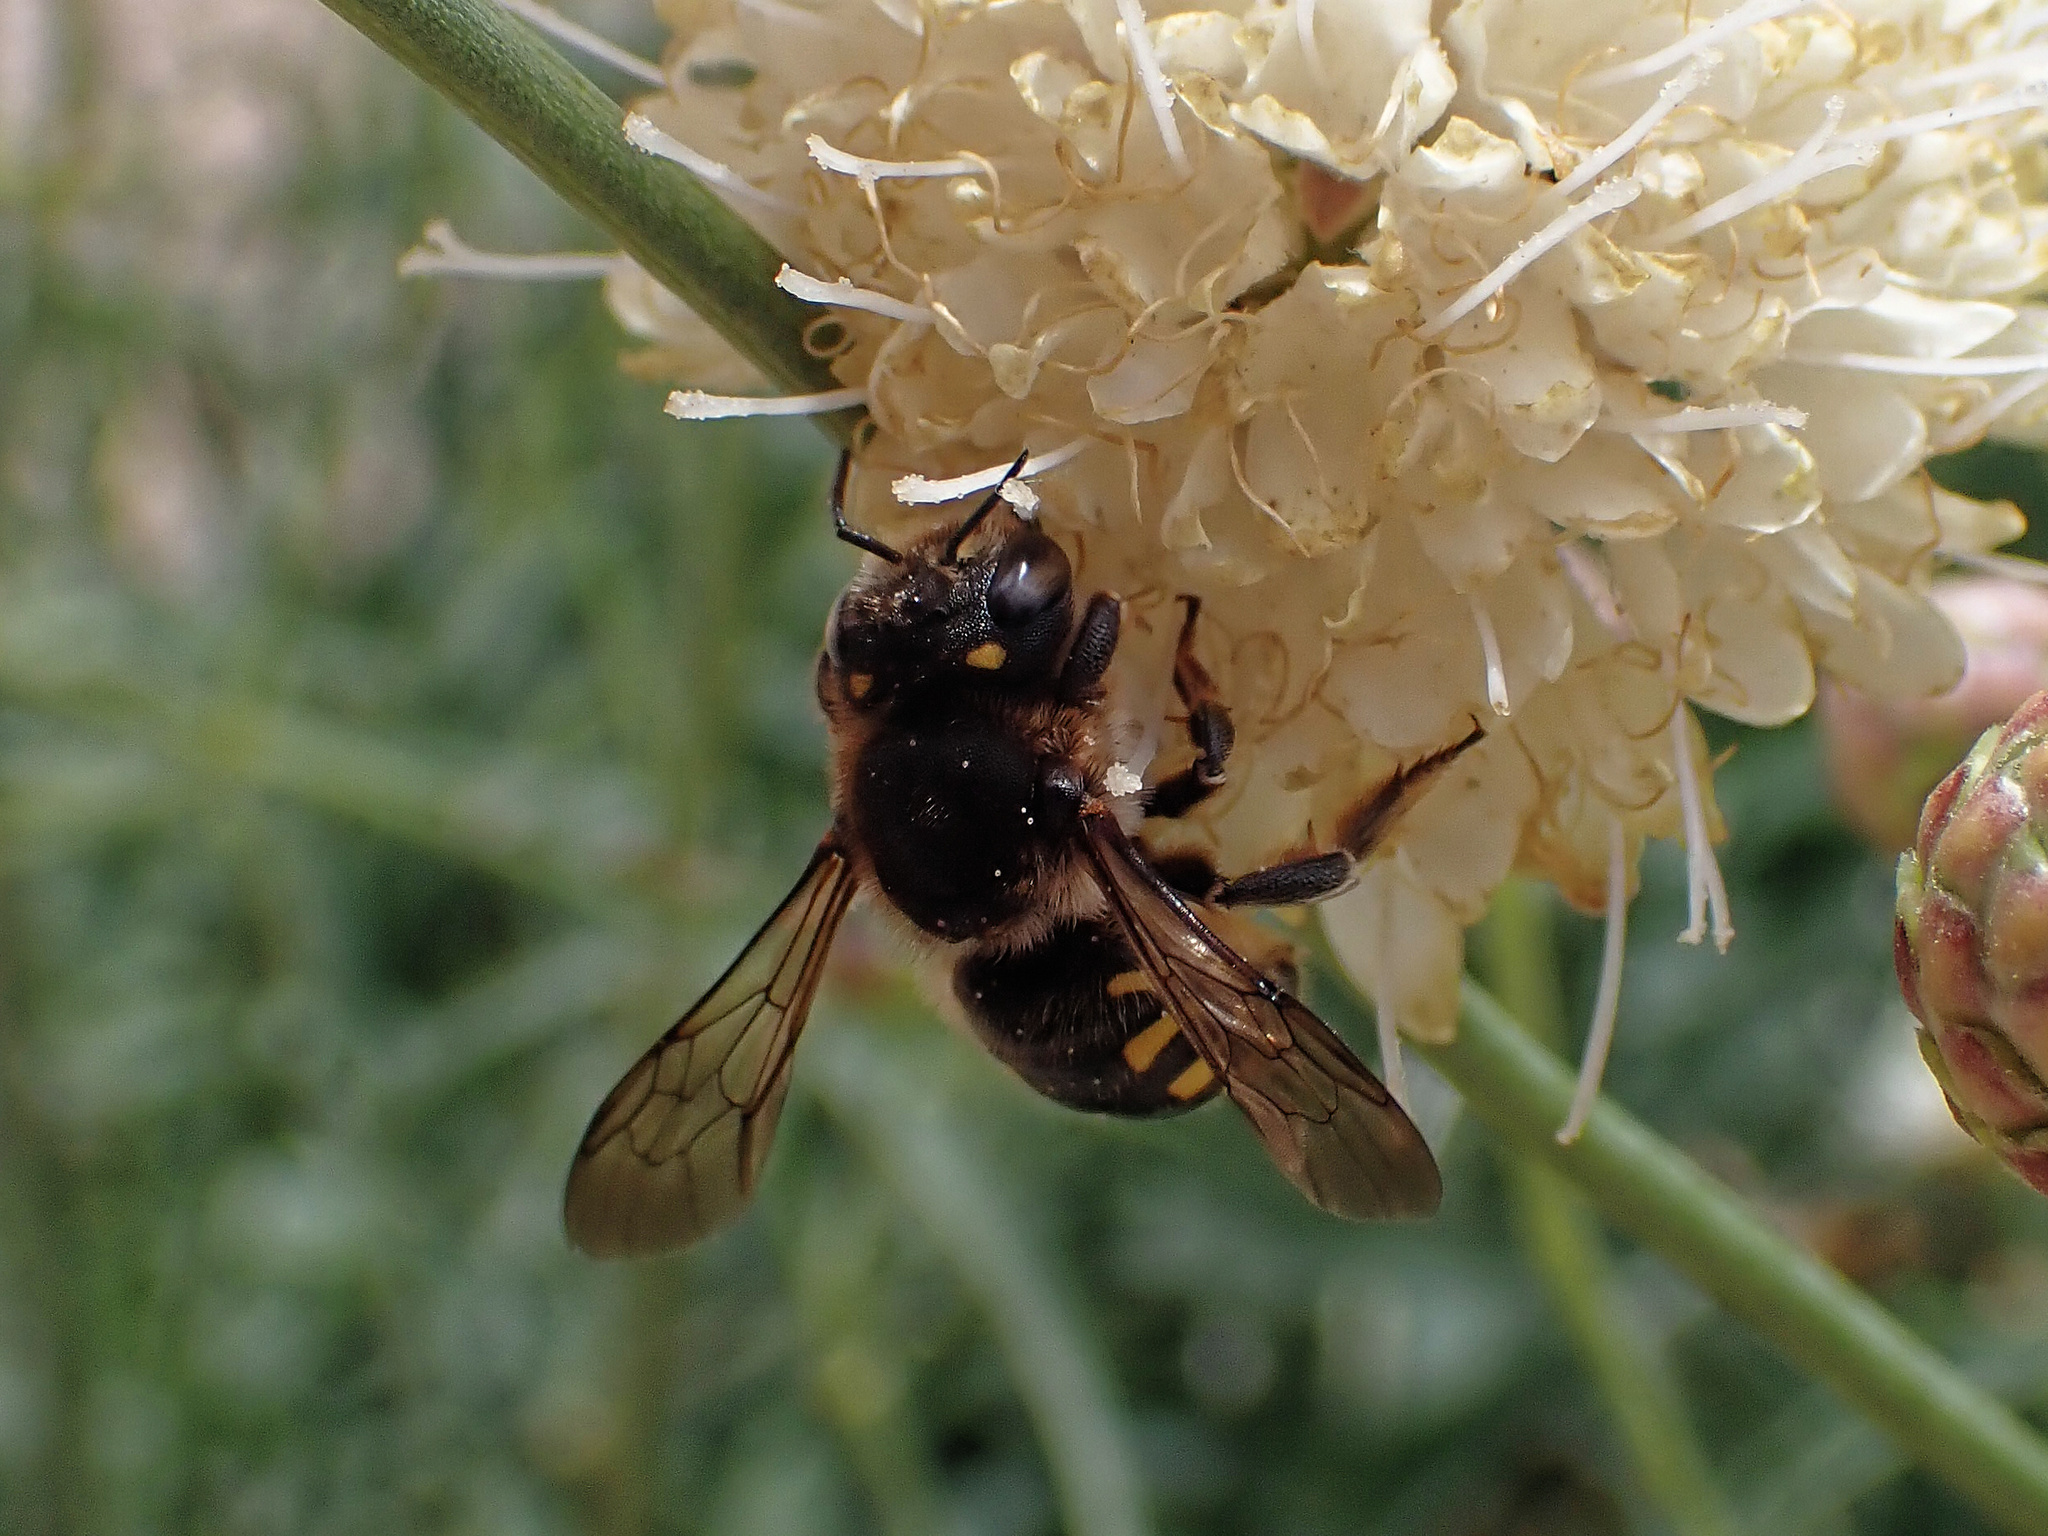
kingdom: Animalia
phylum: Arthropoda
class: Insecta
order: Hymenoptera
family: Megachilidae
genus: Anthidium
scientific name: Anthidium septemspinosum
